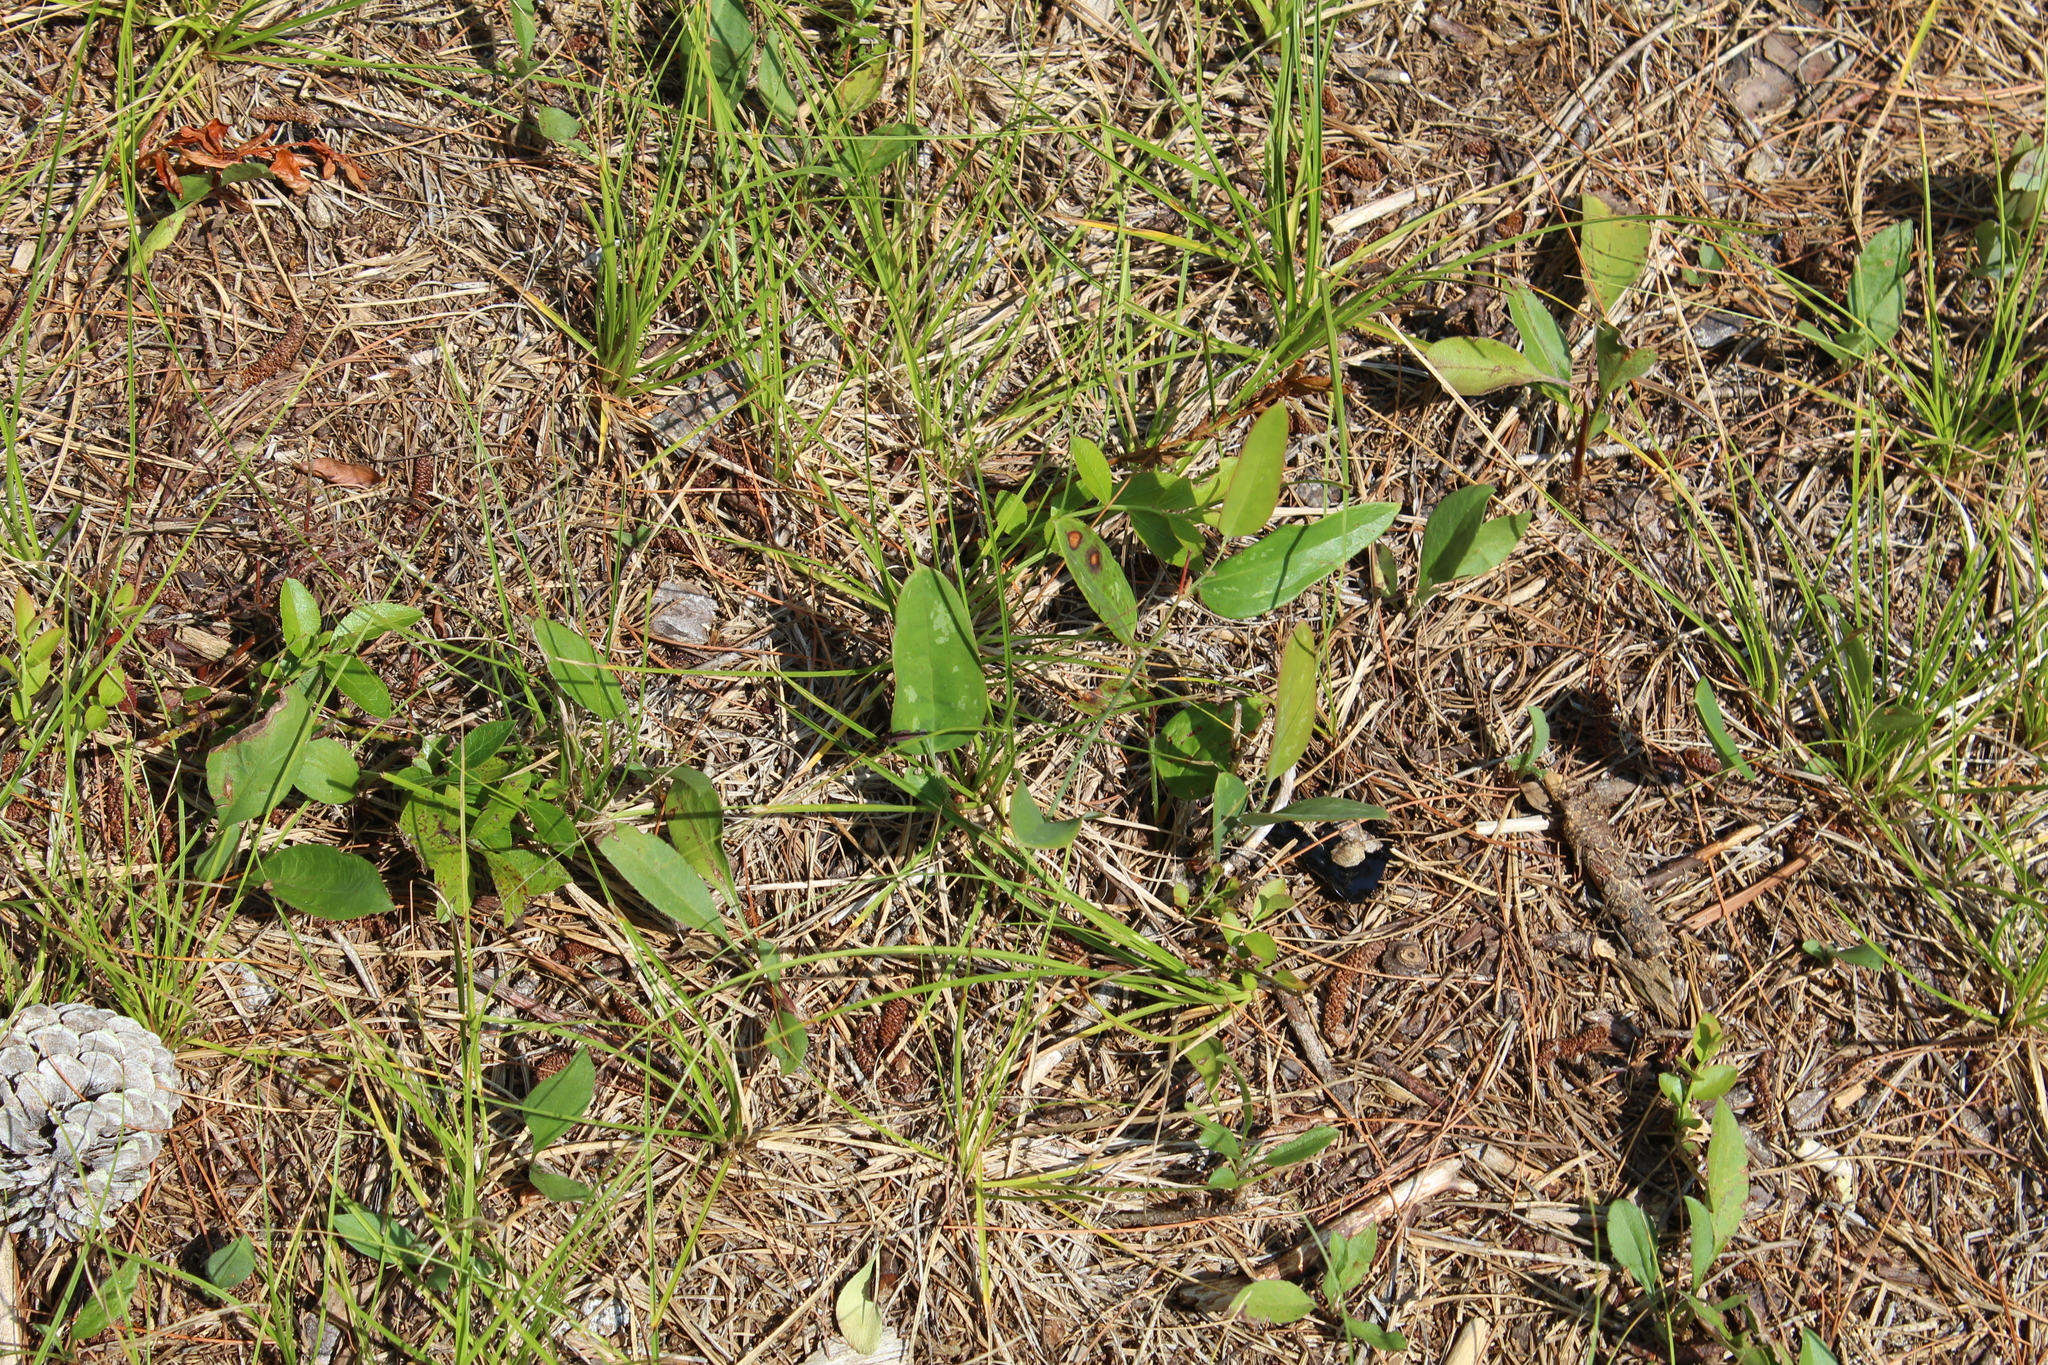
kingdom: Plantae
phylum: Tracheophyta
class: Liliopsida
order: Liliales
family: Smilacaceae
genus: Smilax
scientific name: Smilax glauca
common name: Cat greenbrier
